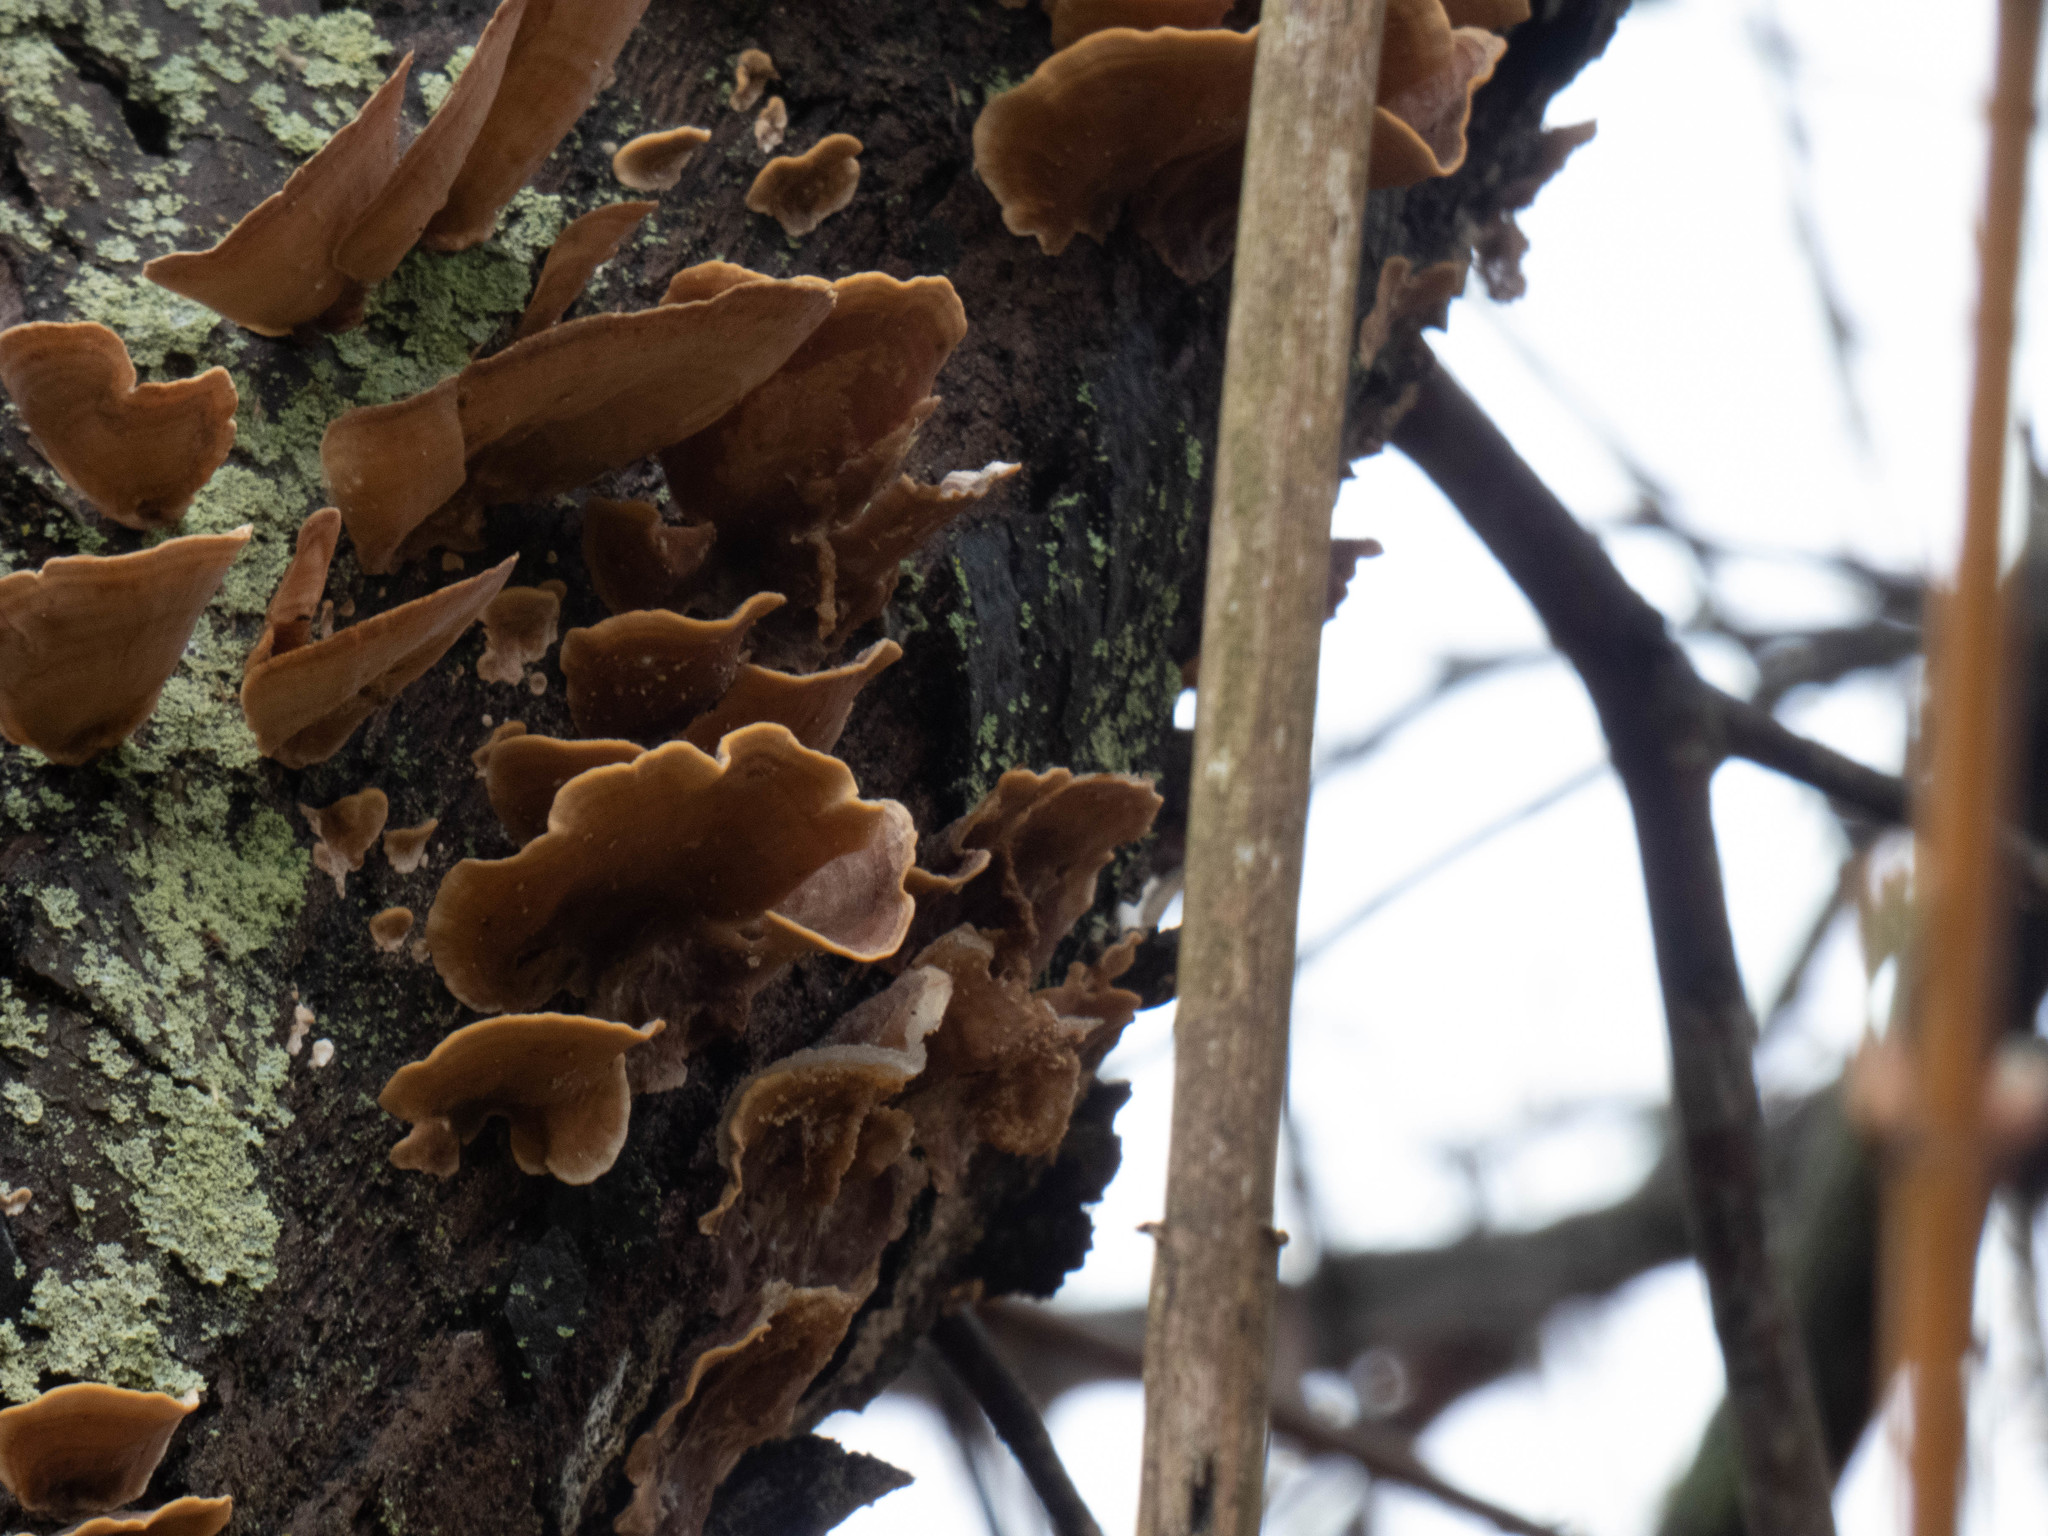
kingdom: Fungi
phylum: Basidiomycota
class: Agaricomycetes
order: Russulales
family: Stereaceae
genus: Stereum
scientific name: Stereum ostrea
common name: False turkeytail
